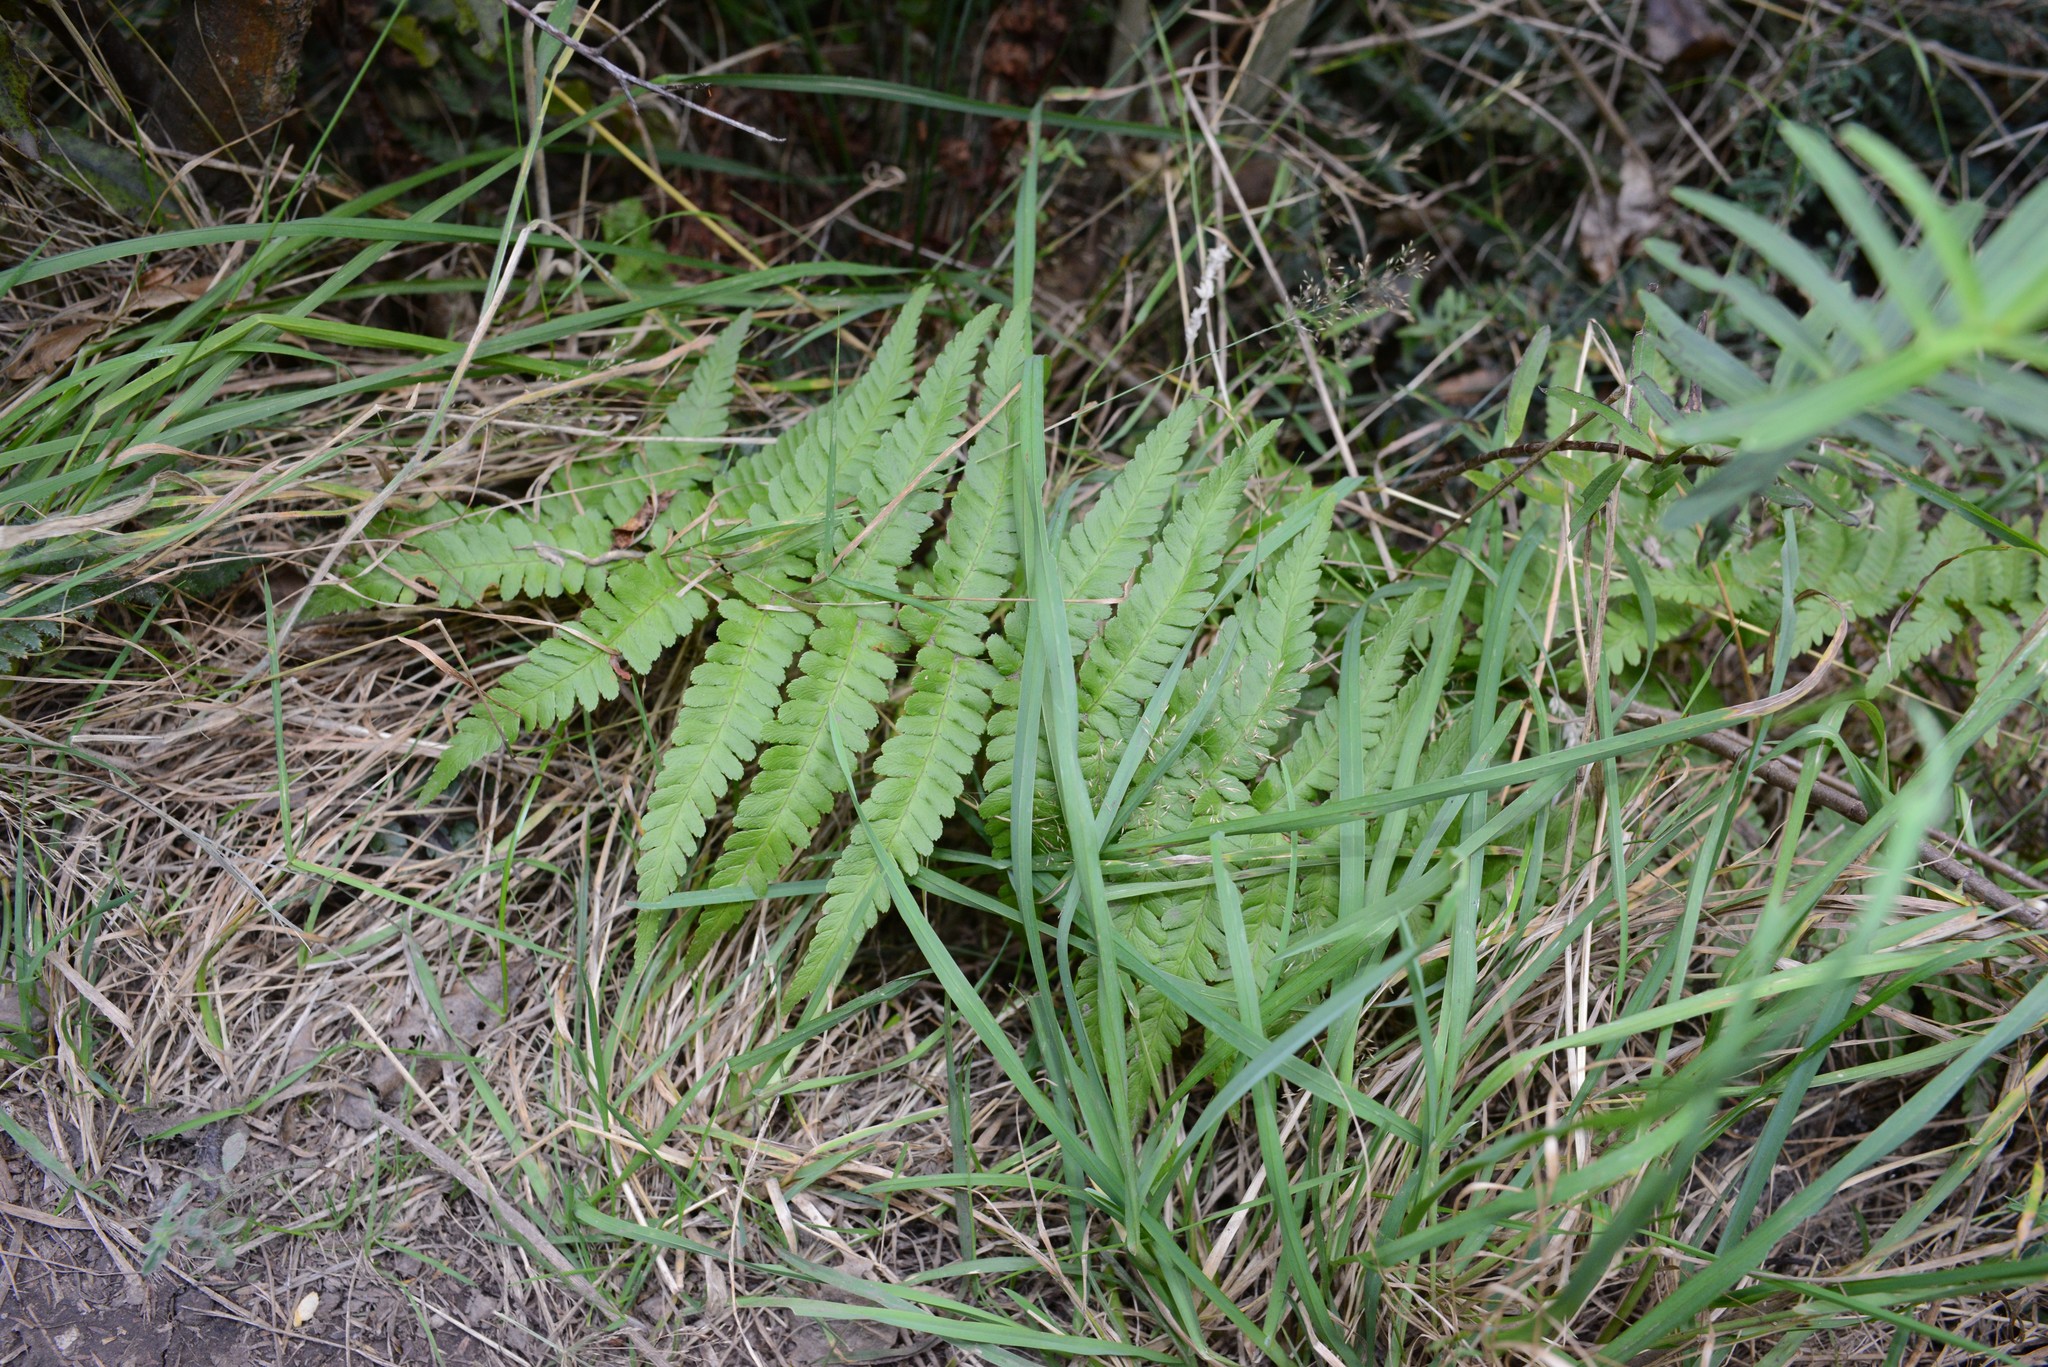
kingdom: Plantae
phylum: Tracheophyta
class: Polypodiopsida
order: Polypodiales
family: Dryopteridaceae
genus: Dryopteris
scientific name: Dryopteris filix-mas
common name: Male fern
